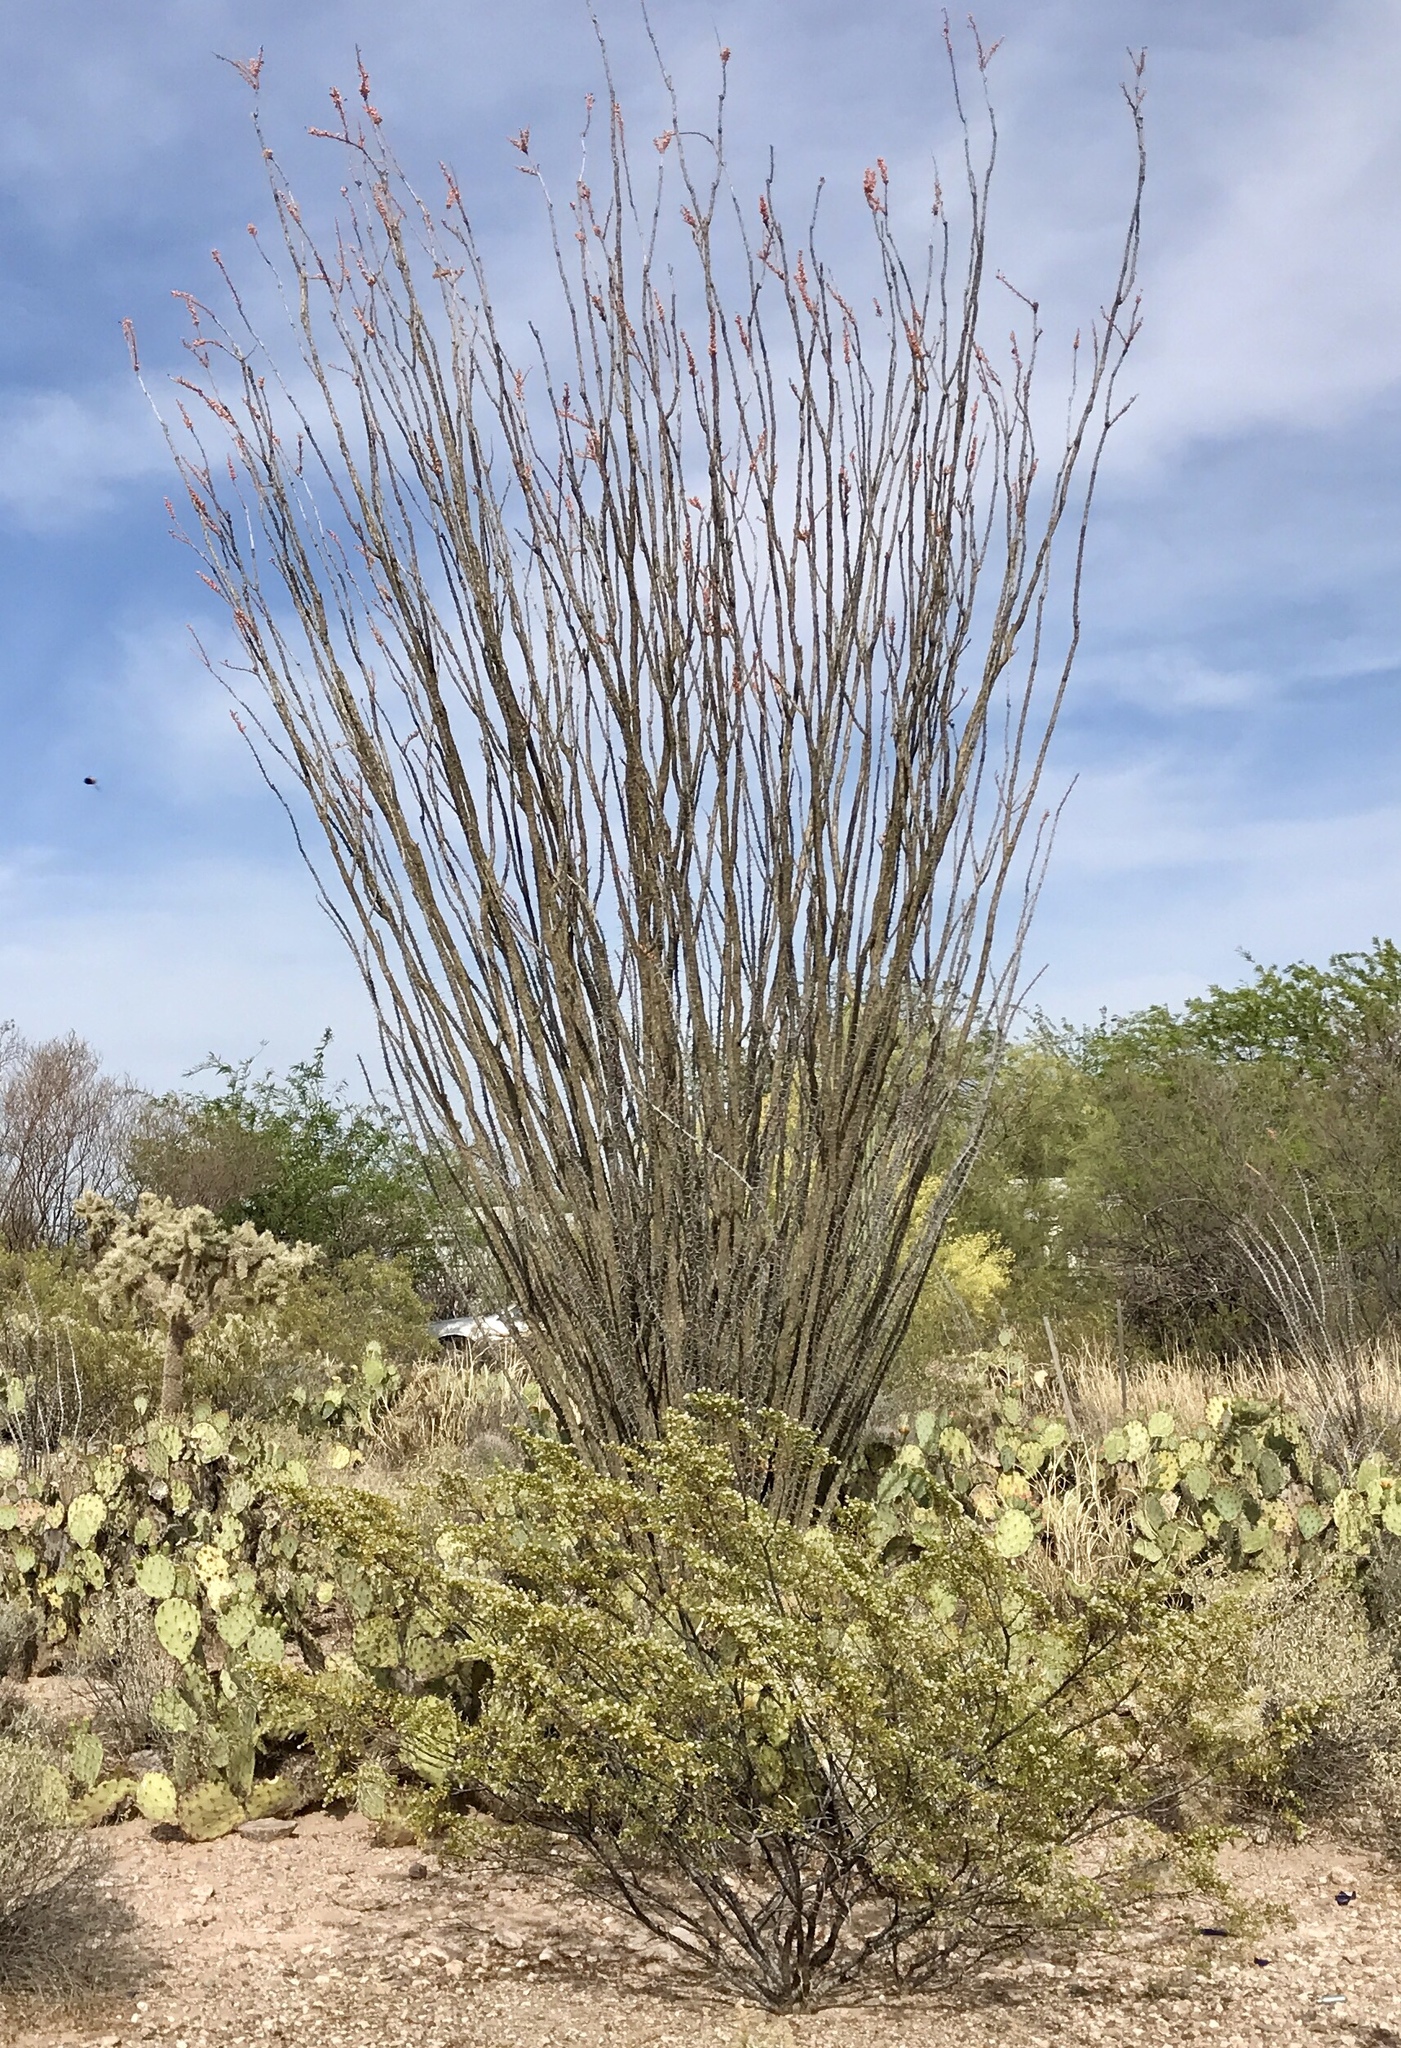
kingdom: Plantae
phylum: Tracheophyta
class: Magnoliopsida
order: Ericales
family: Fouquieriaceae
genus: Fouquieria
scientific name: Fouquieria splendens
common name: Vine-cactus
